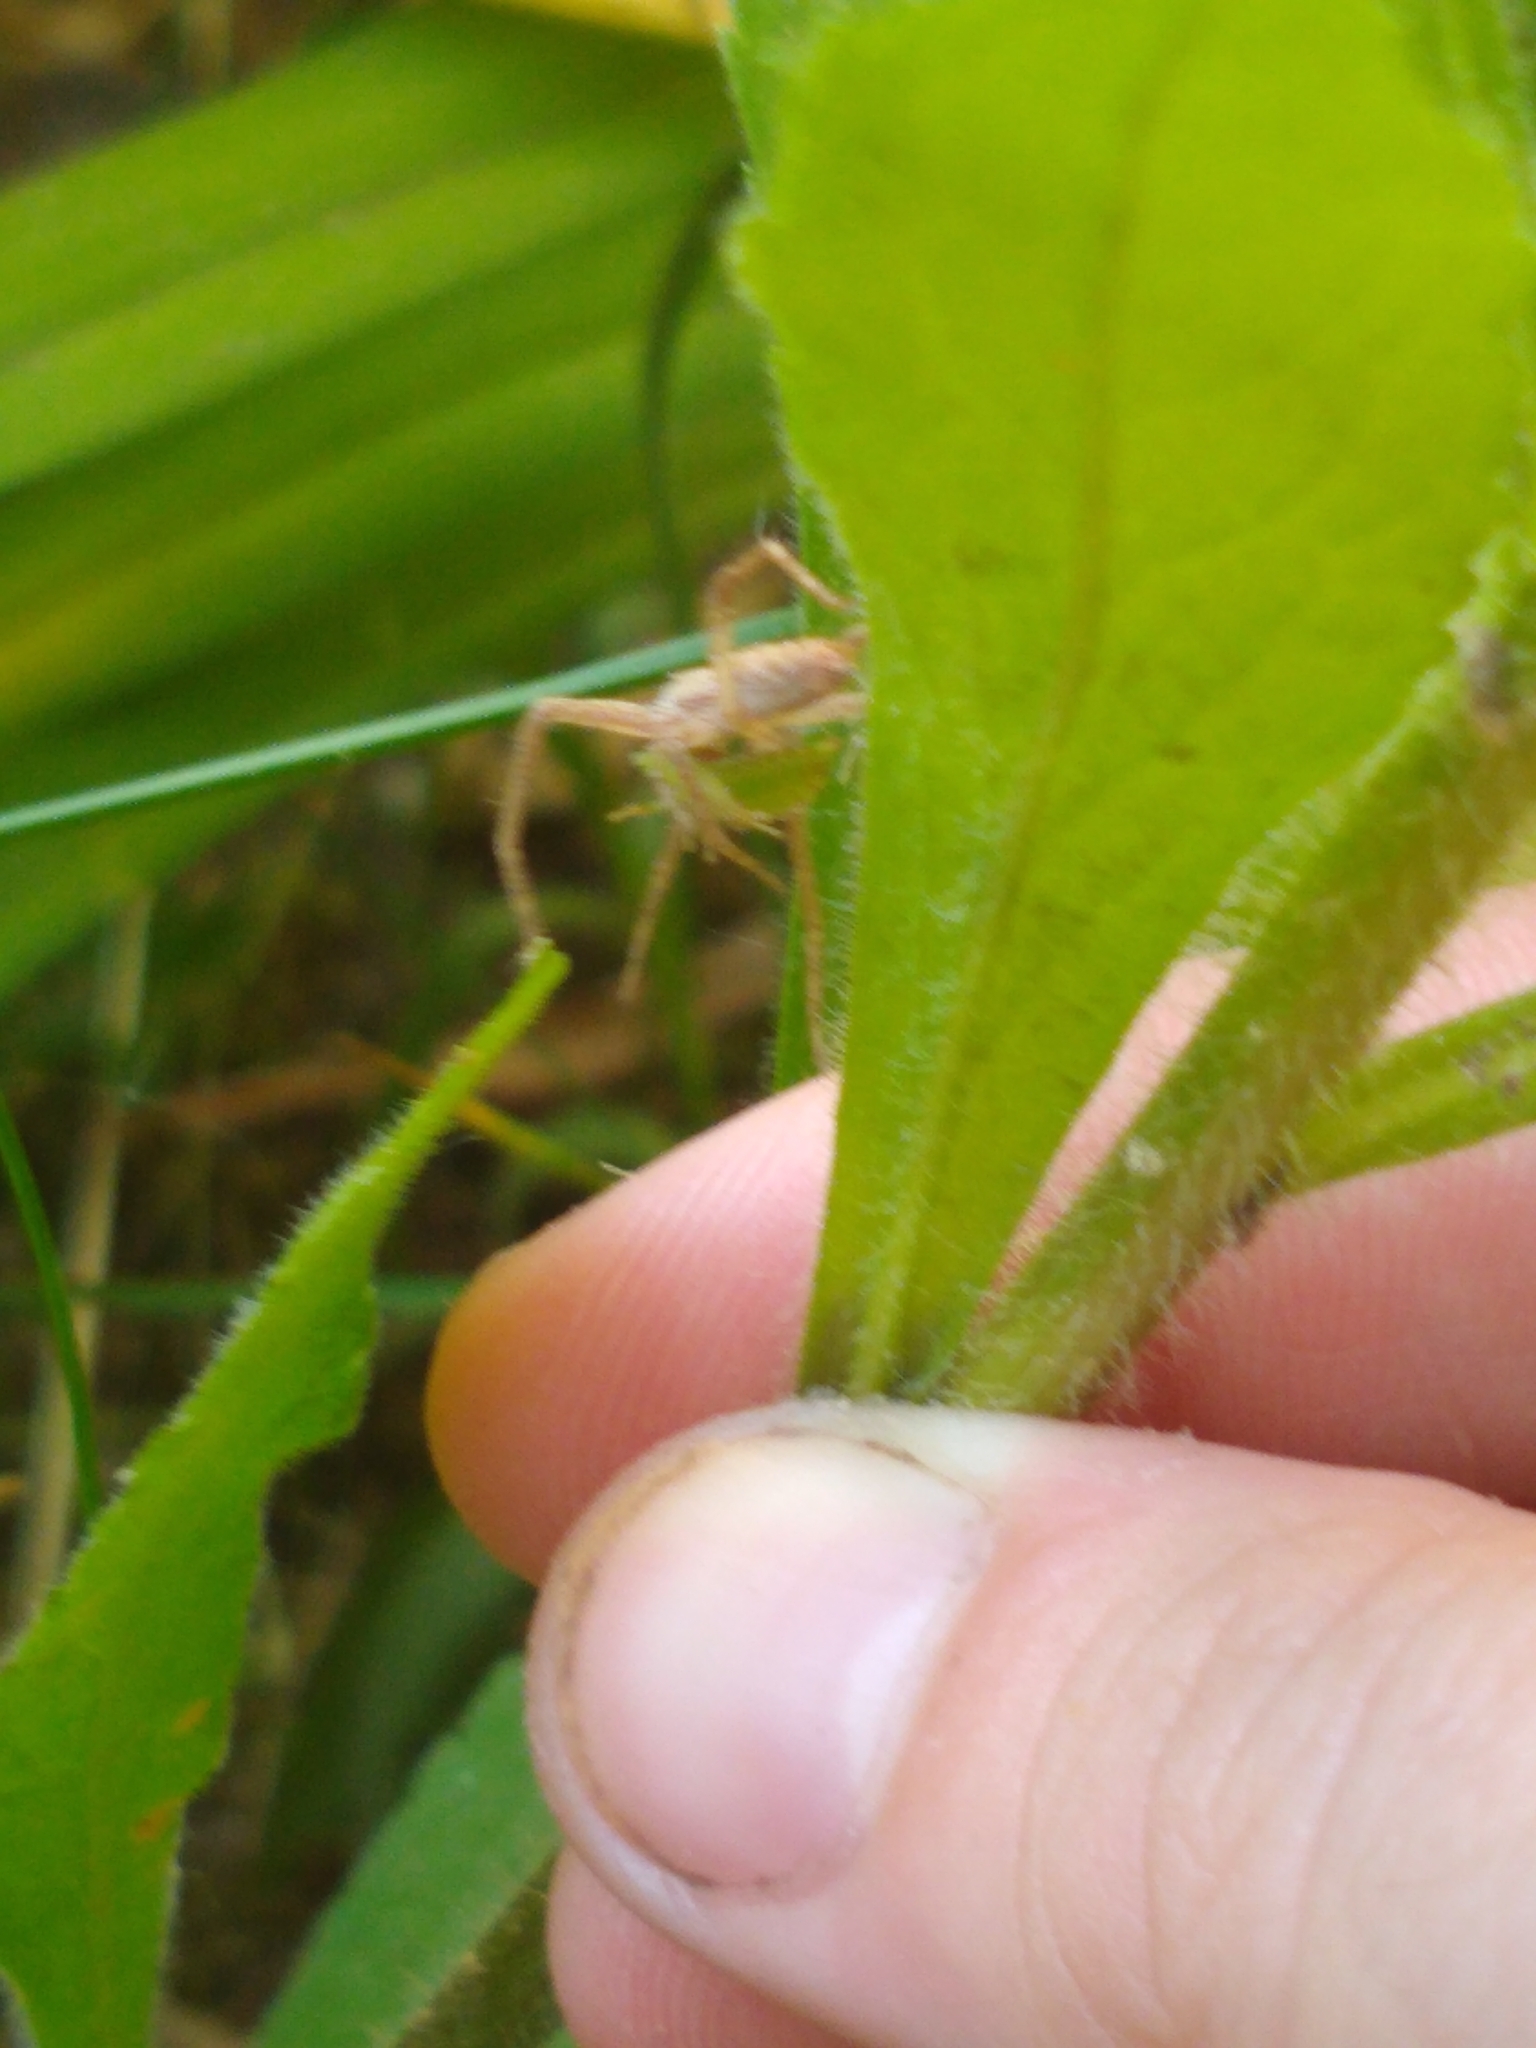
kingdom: Animalia
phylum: Arthropoda
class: Arachnida
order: Araneae
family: Pisauridae
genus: Pisaurina
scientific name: Pisaurina mira
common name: American nursery web spider
